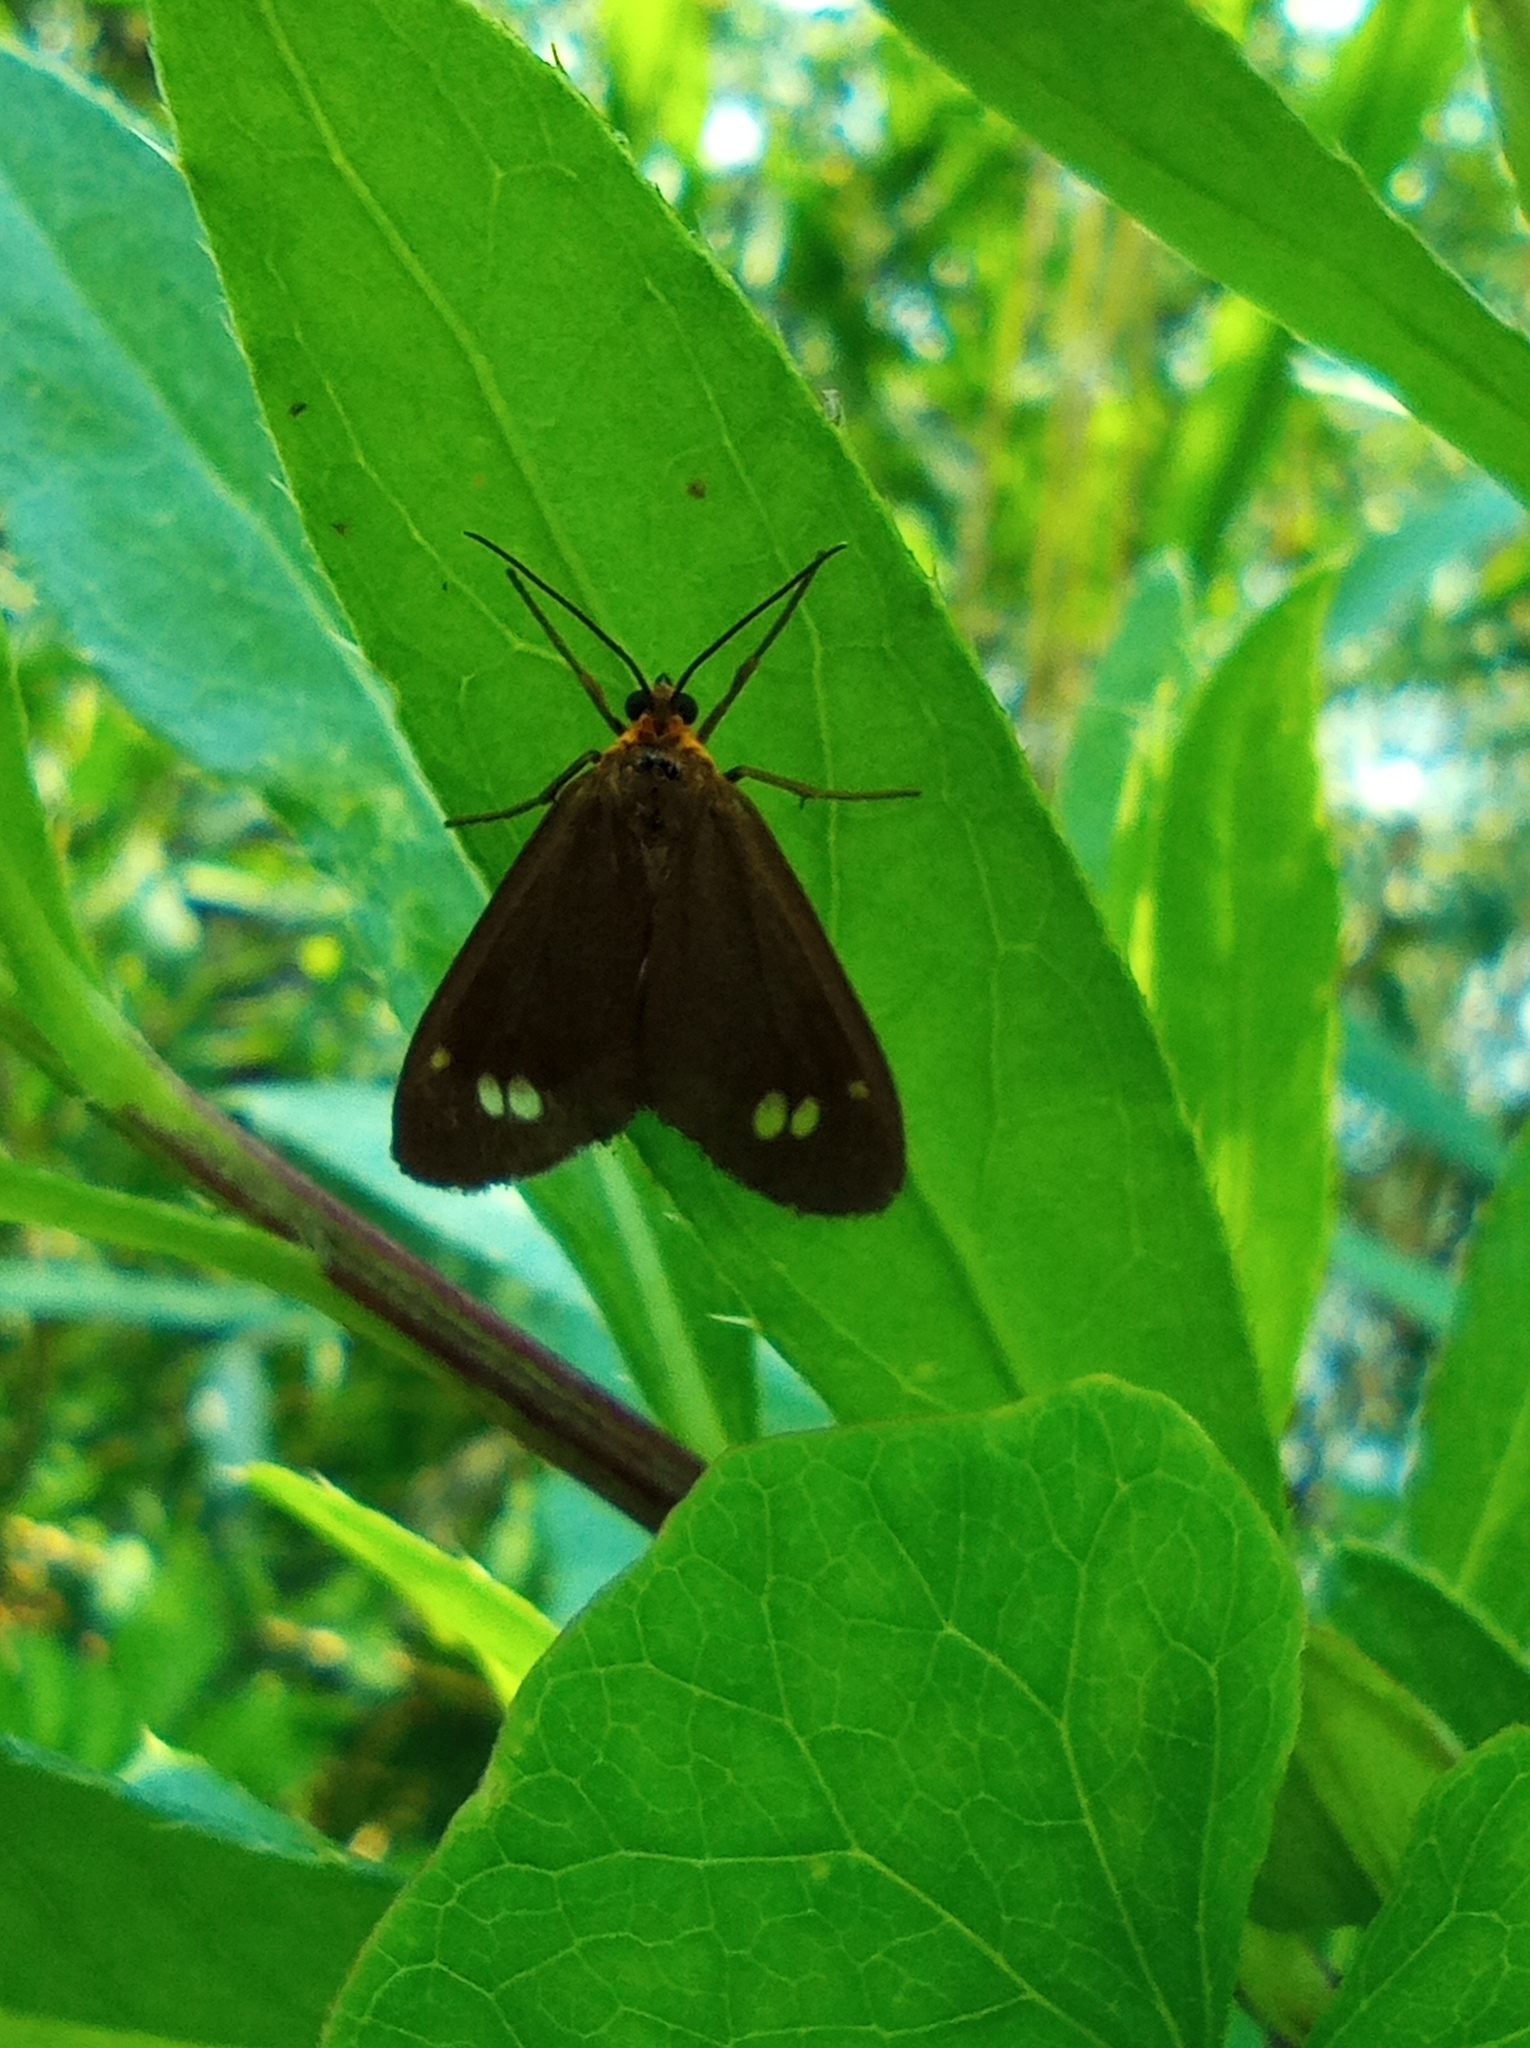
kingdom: Animalia
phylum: Arthropoda
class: Insecta
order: Lepidoptera
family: Erebidae
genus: Dysauxes
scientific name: Dysauxes ancilla
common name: The handmaid
